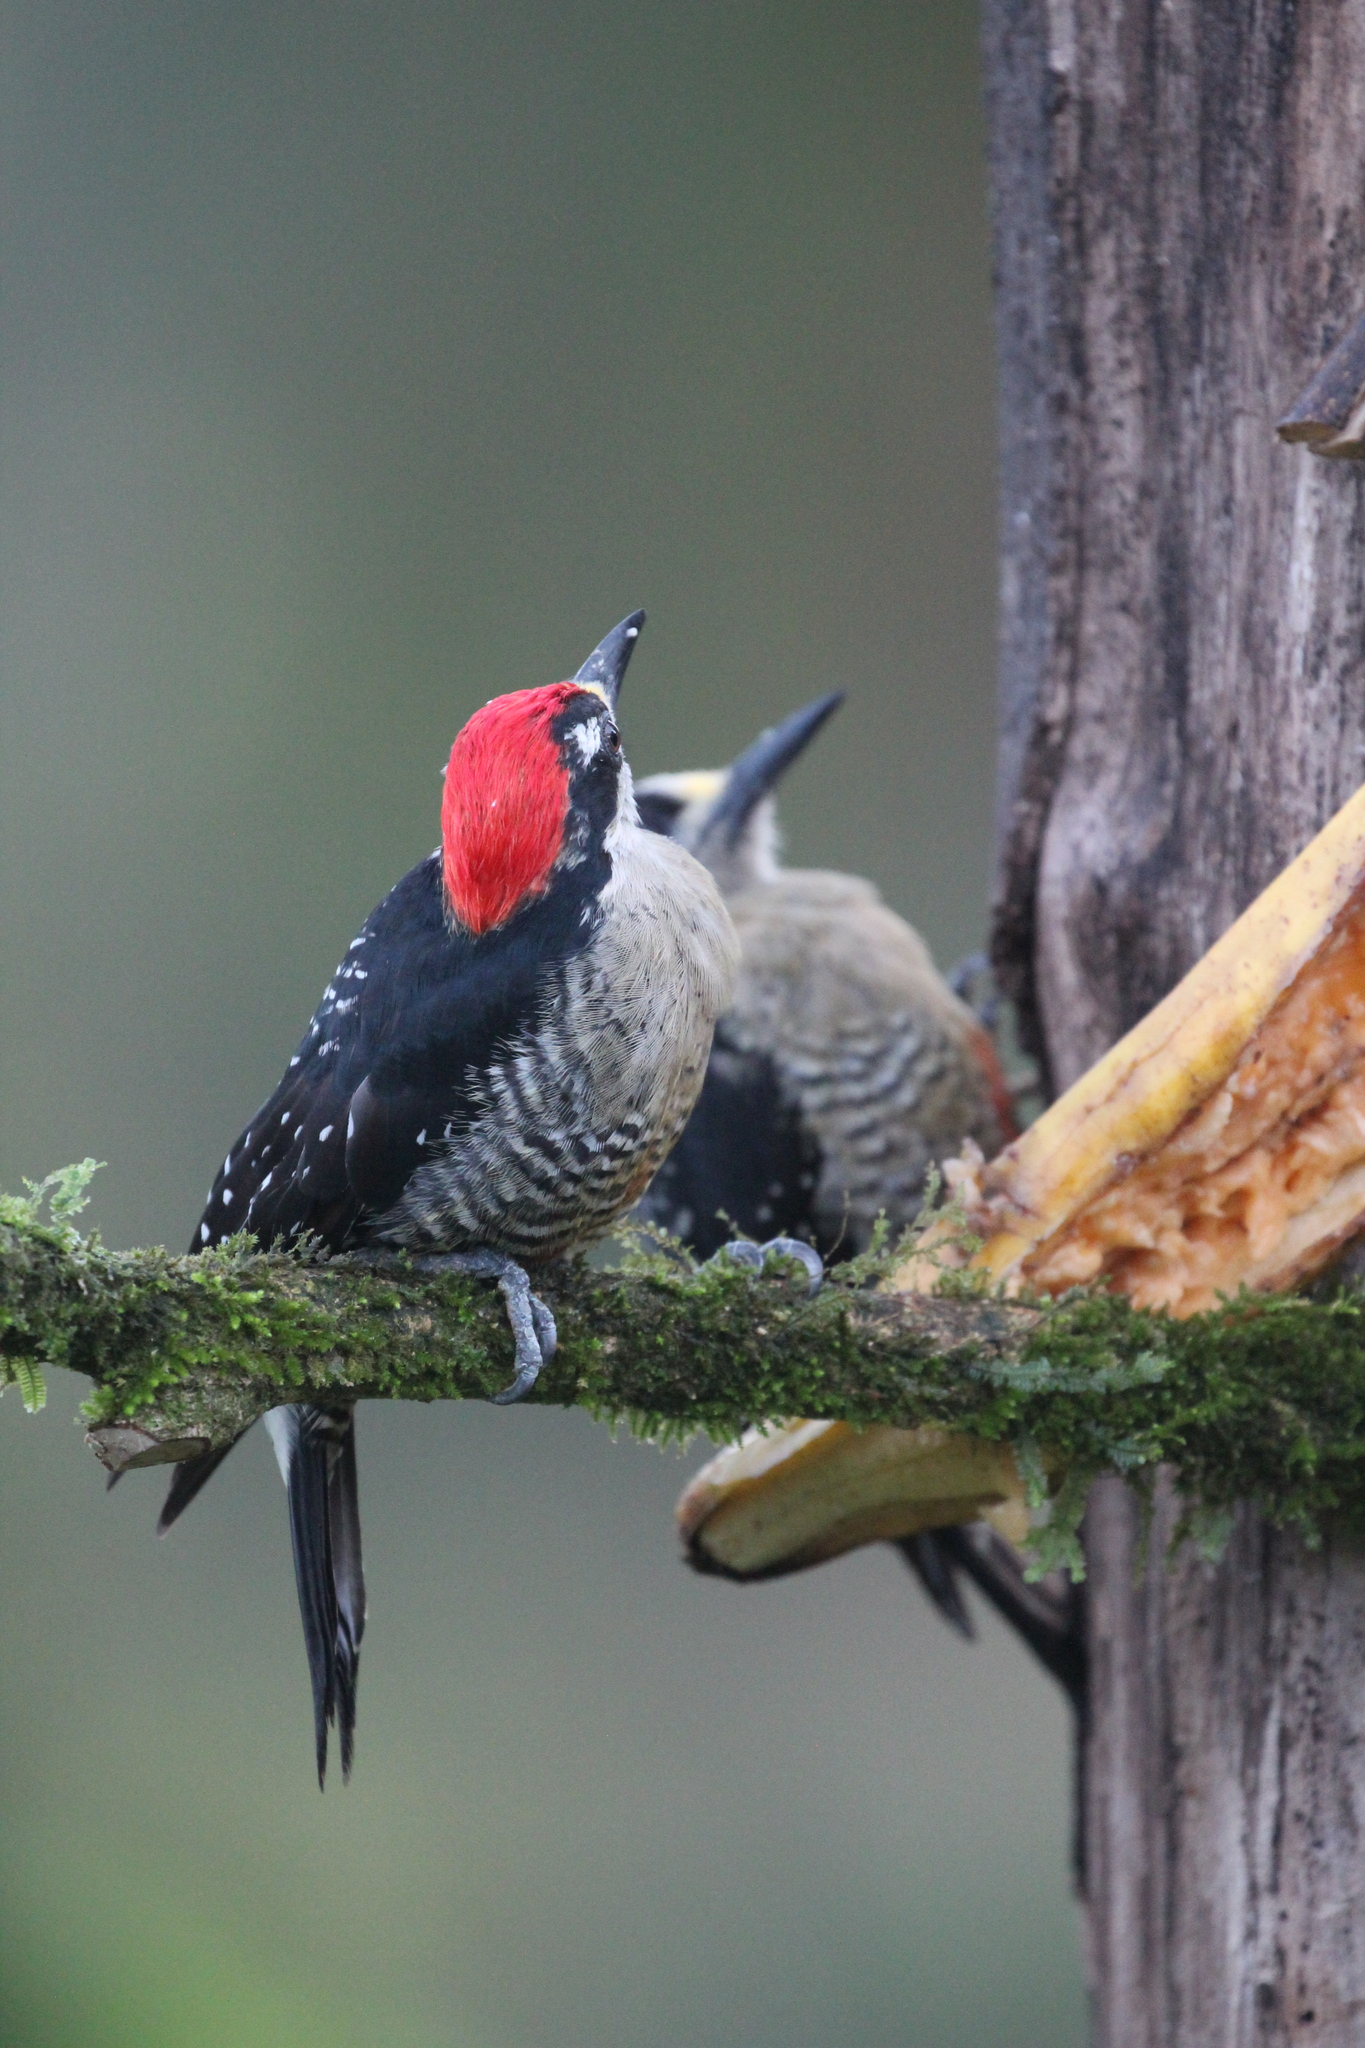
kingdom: Animalia
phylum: Chordata
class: Aves
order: Piciformes
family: Picidae
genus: Melanerpes
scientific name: Melanerpes pucherani
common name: Black-cheeked woodpecker
